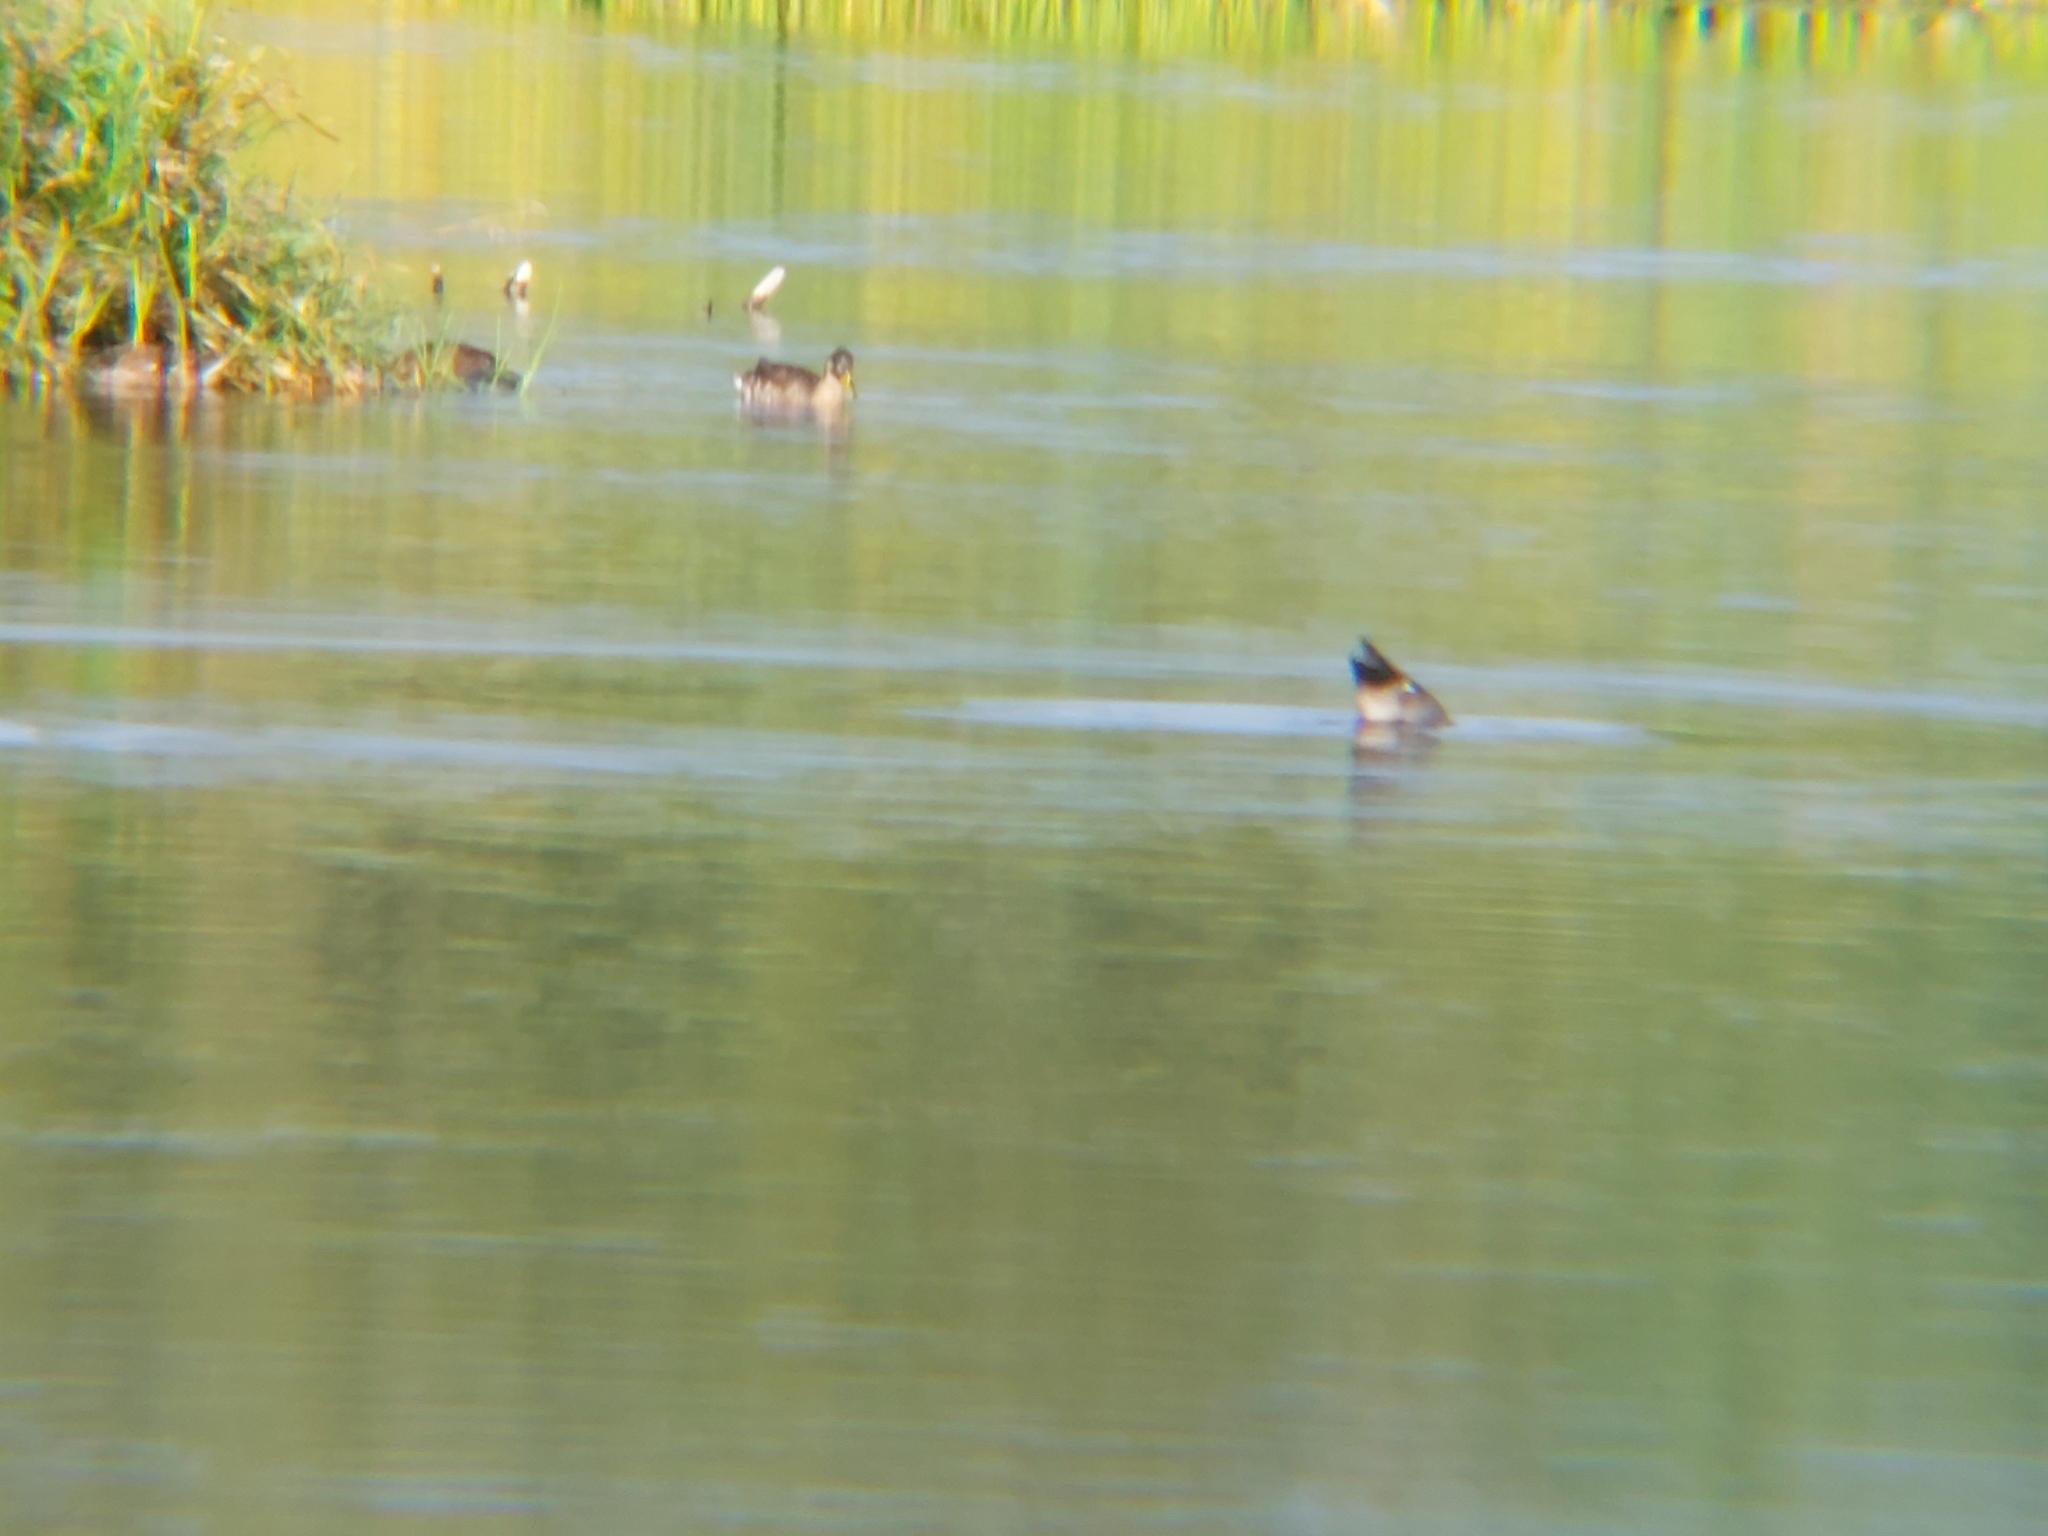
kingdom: Animalia
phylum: Chordata
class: Aves
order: Anseriformes
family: Anatidae
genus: Mareca
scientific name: Mareca strepera
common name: Gadwall
